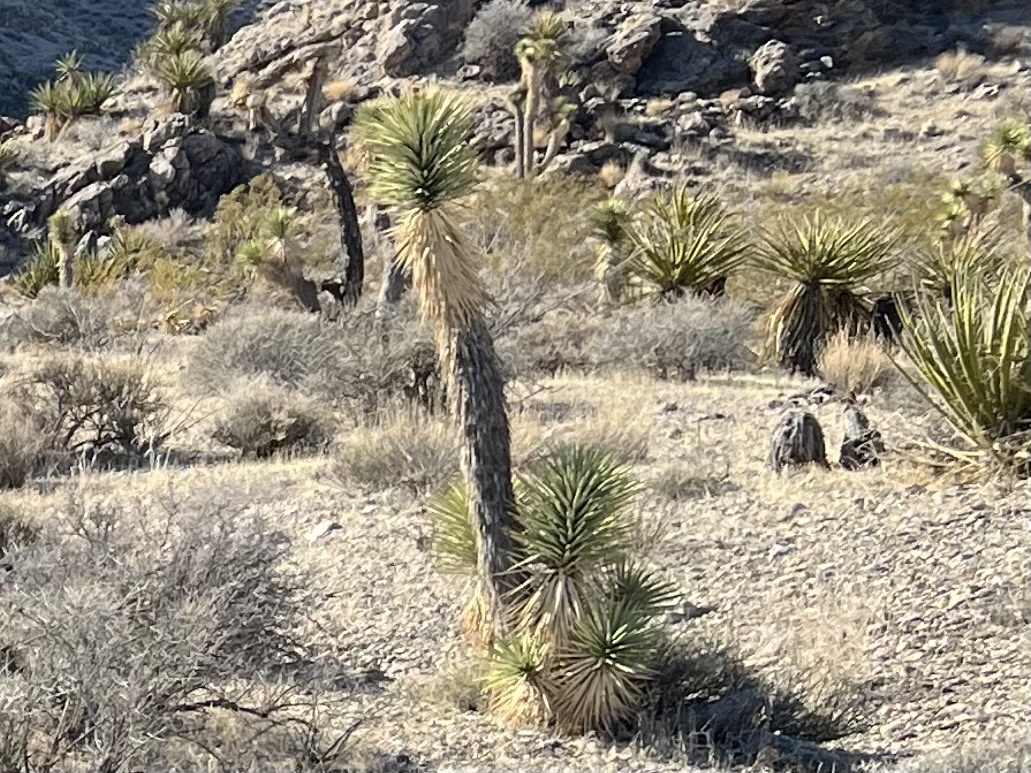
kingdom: Plantae
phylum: Tracheophyta
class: Liliopsida
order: Asparagales
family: Asparagaceae
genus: Yucca
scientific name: Yucca brevifolia
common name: Joshua tree
